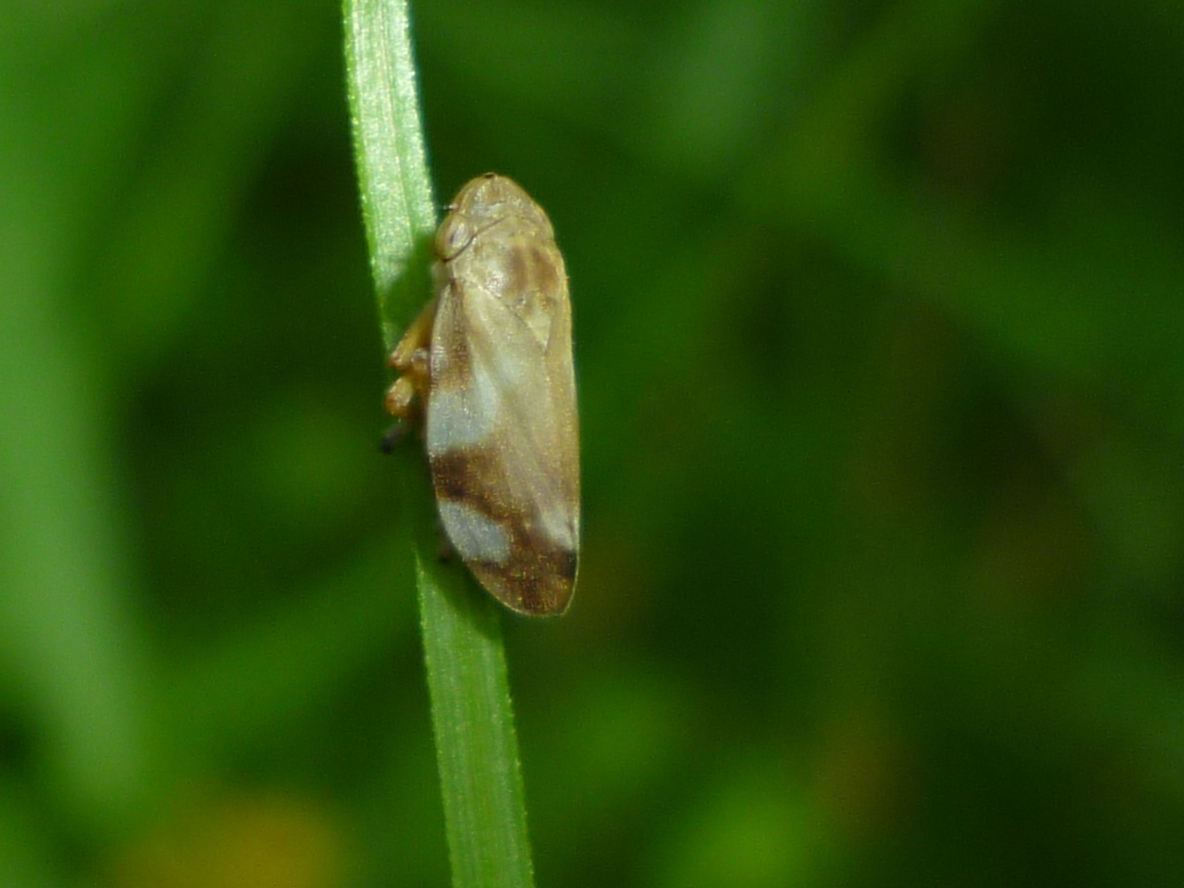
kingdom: Animalia
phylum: Arthropoda
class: Insecta
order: Hemiptera
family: Aphrophoridae
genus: Philaenus
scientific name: Philaenus spumarius
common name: Meadow spittlebug
